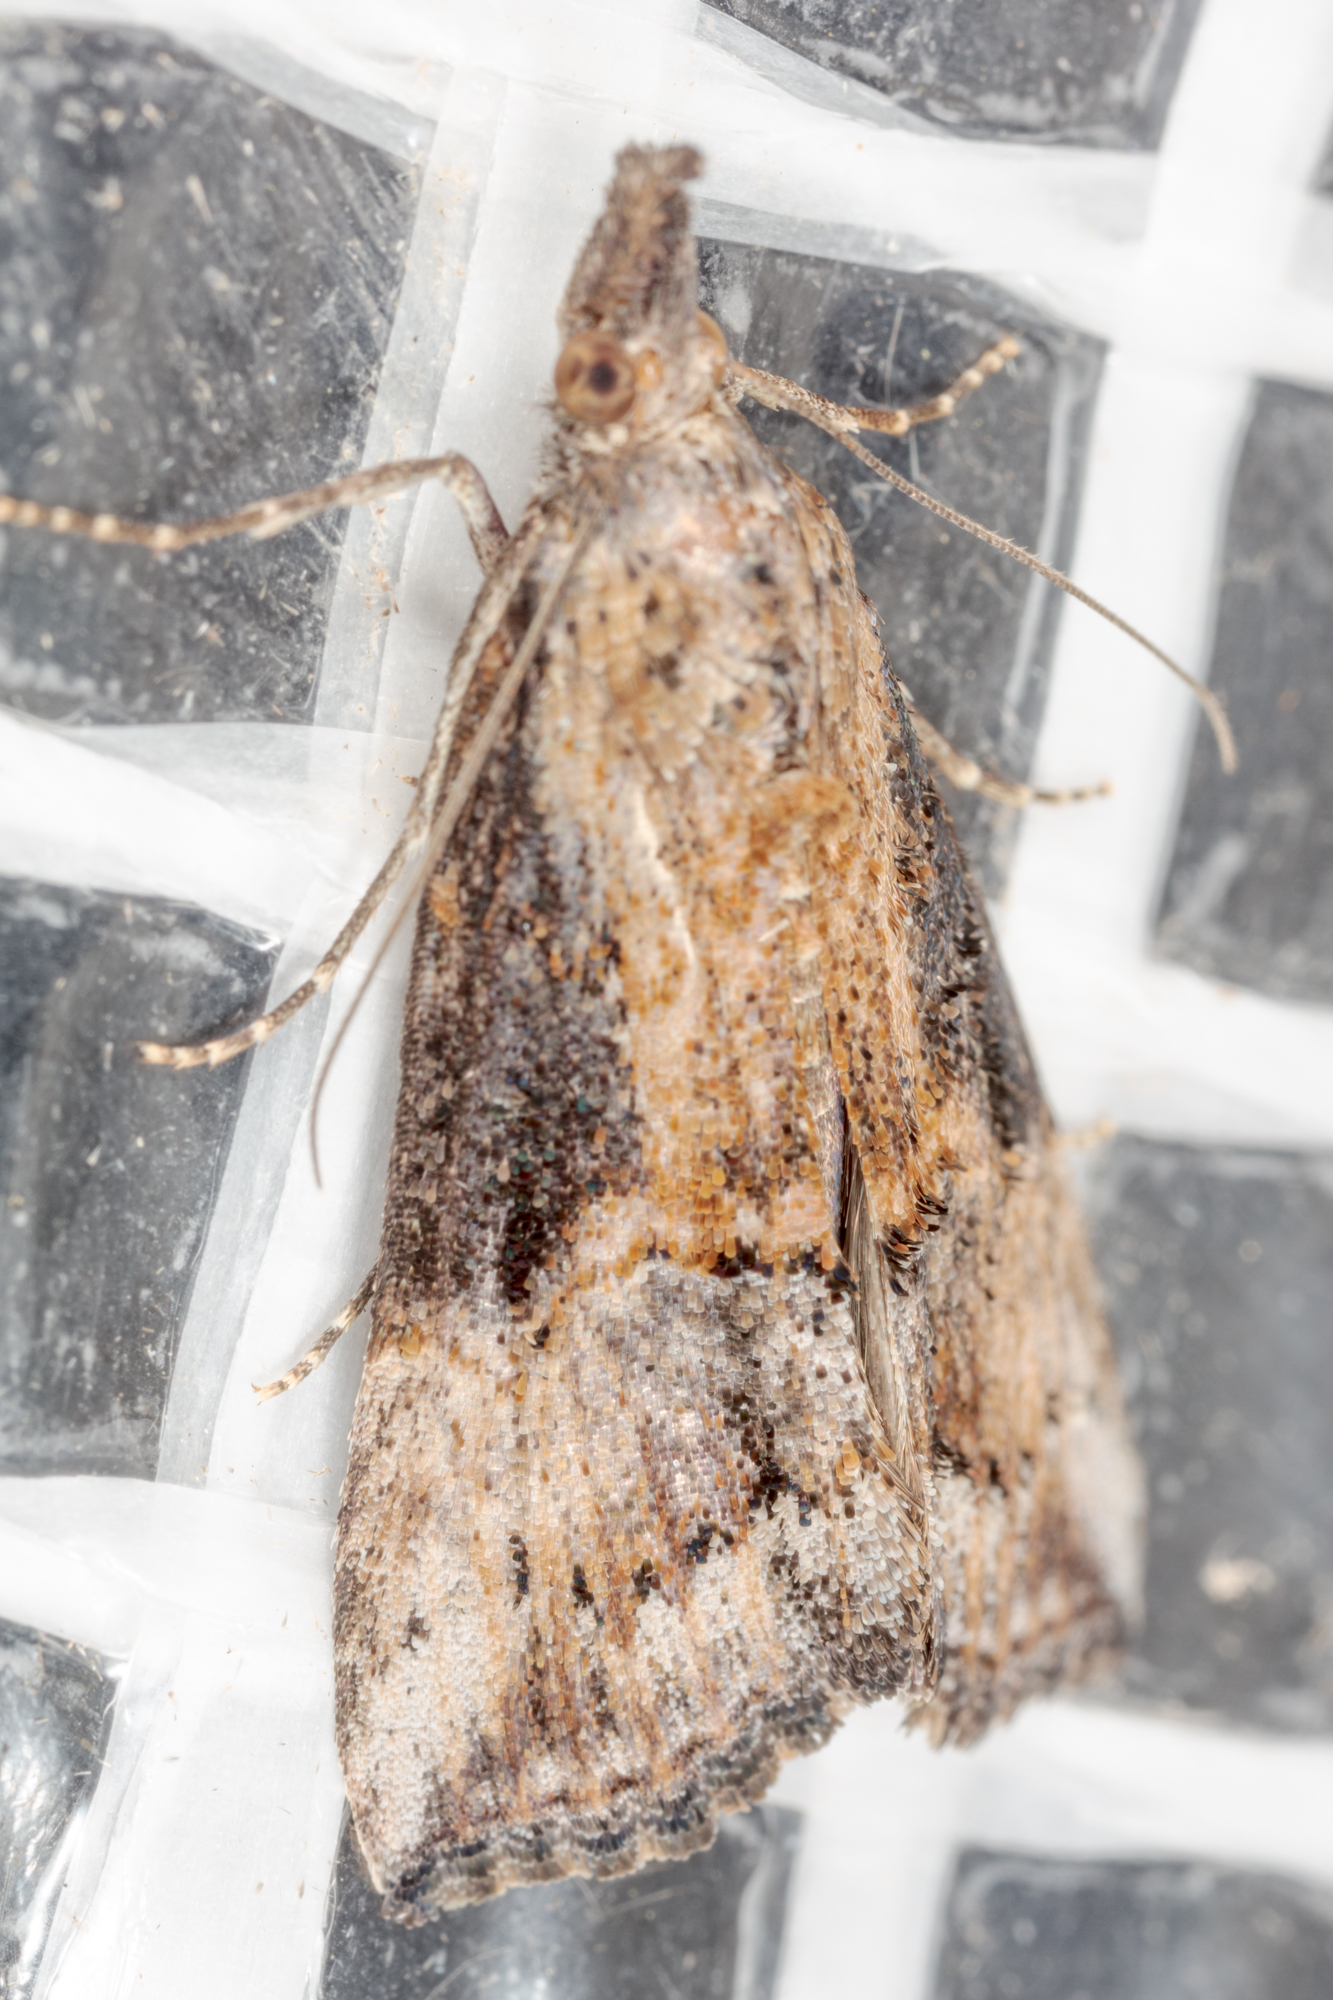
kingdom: Animalia
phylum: Arthropoda
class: Insecta
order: Lepidoptera
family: Erebidae
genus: Hypena
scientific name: Hypena scabra
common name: Green cloverworm
